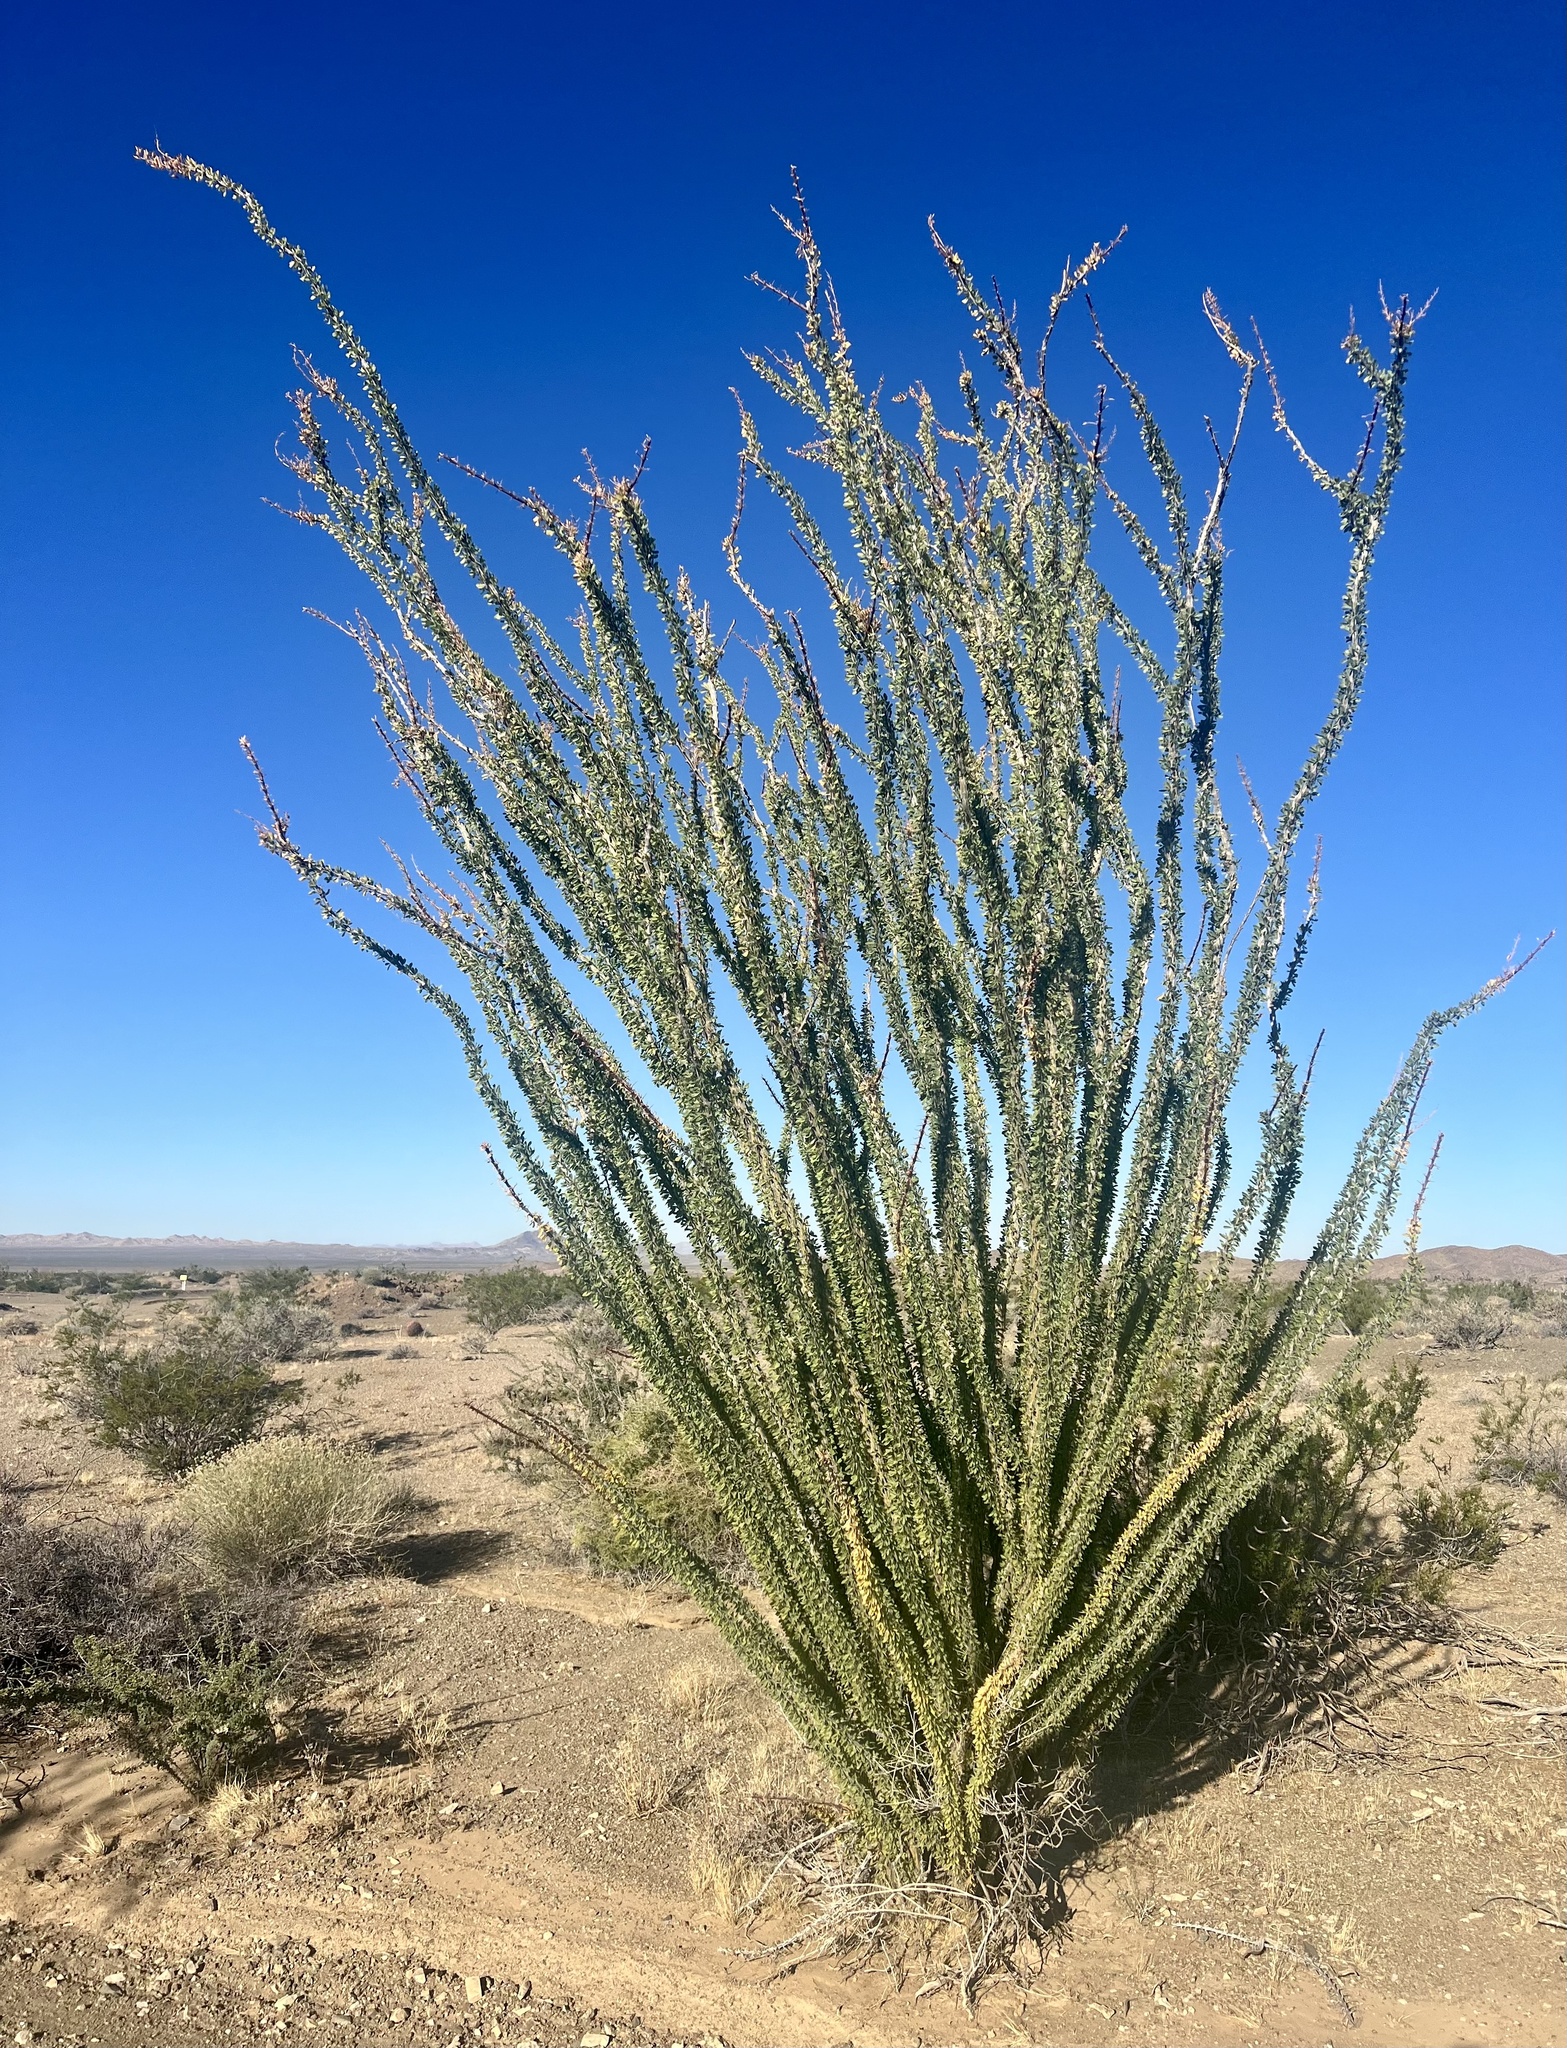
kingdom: Plantae
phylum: Tracheophyta
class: Magnoliopsida
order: Ericales
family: Fouquieriaceae
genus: Fouquieria
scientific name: Fouquieria splendens
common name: Vine-cactus
